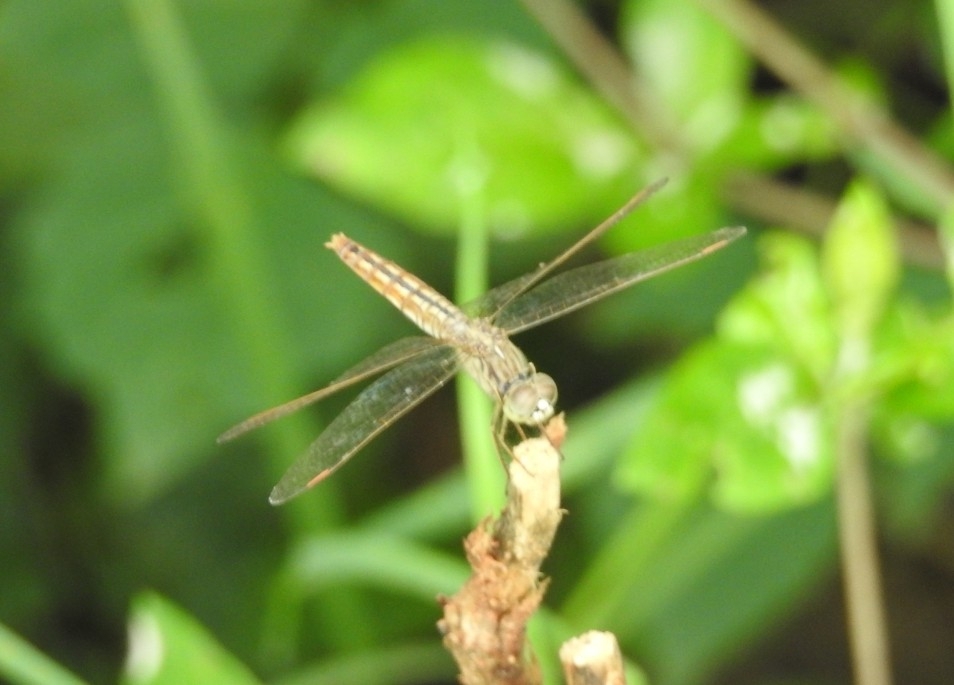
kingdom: Animalia
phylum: Arthropoda
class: Insecta
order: Odonata
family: Libellulidae
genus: Brachythemis
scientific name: Brachythemis contaminata
